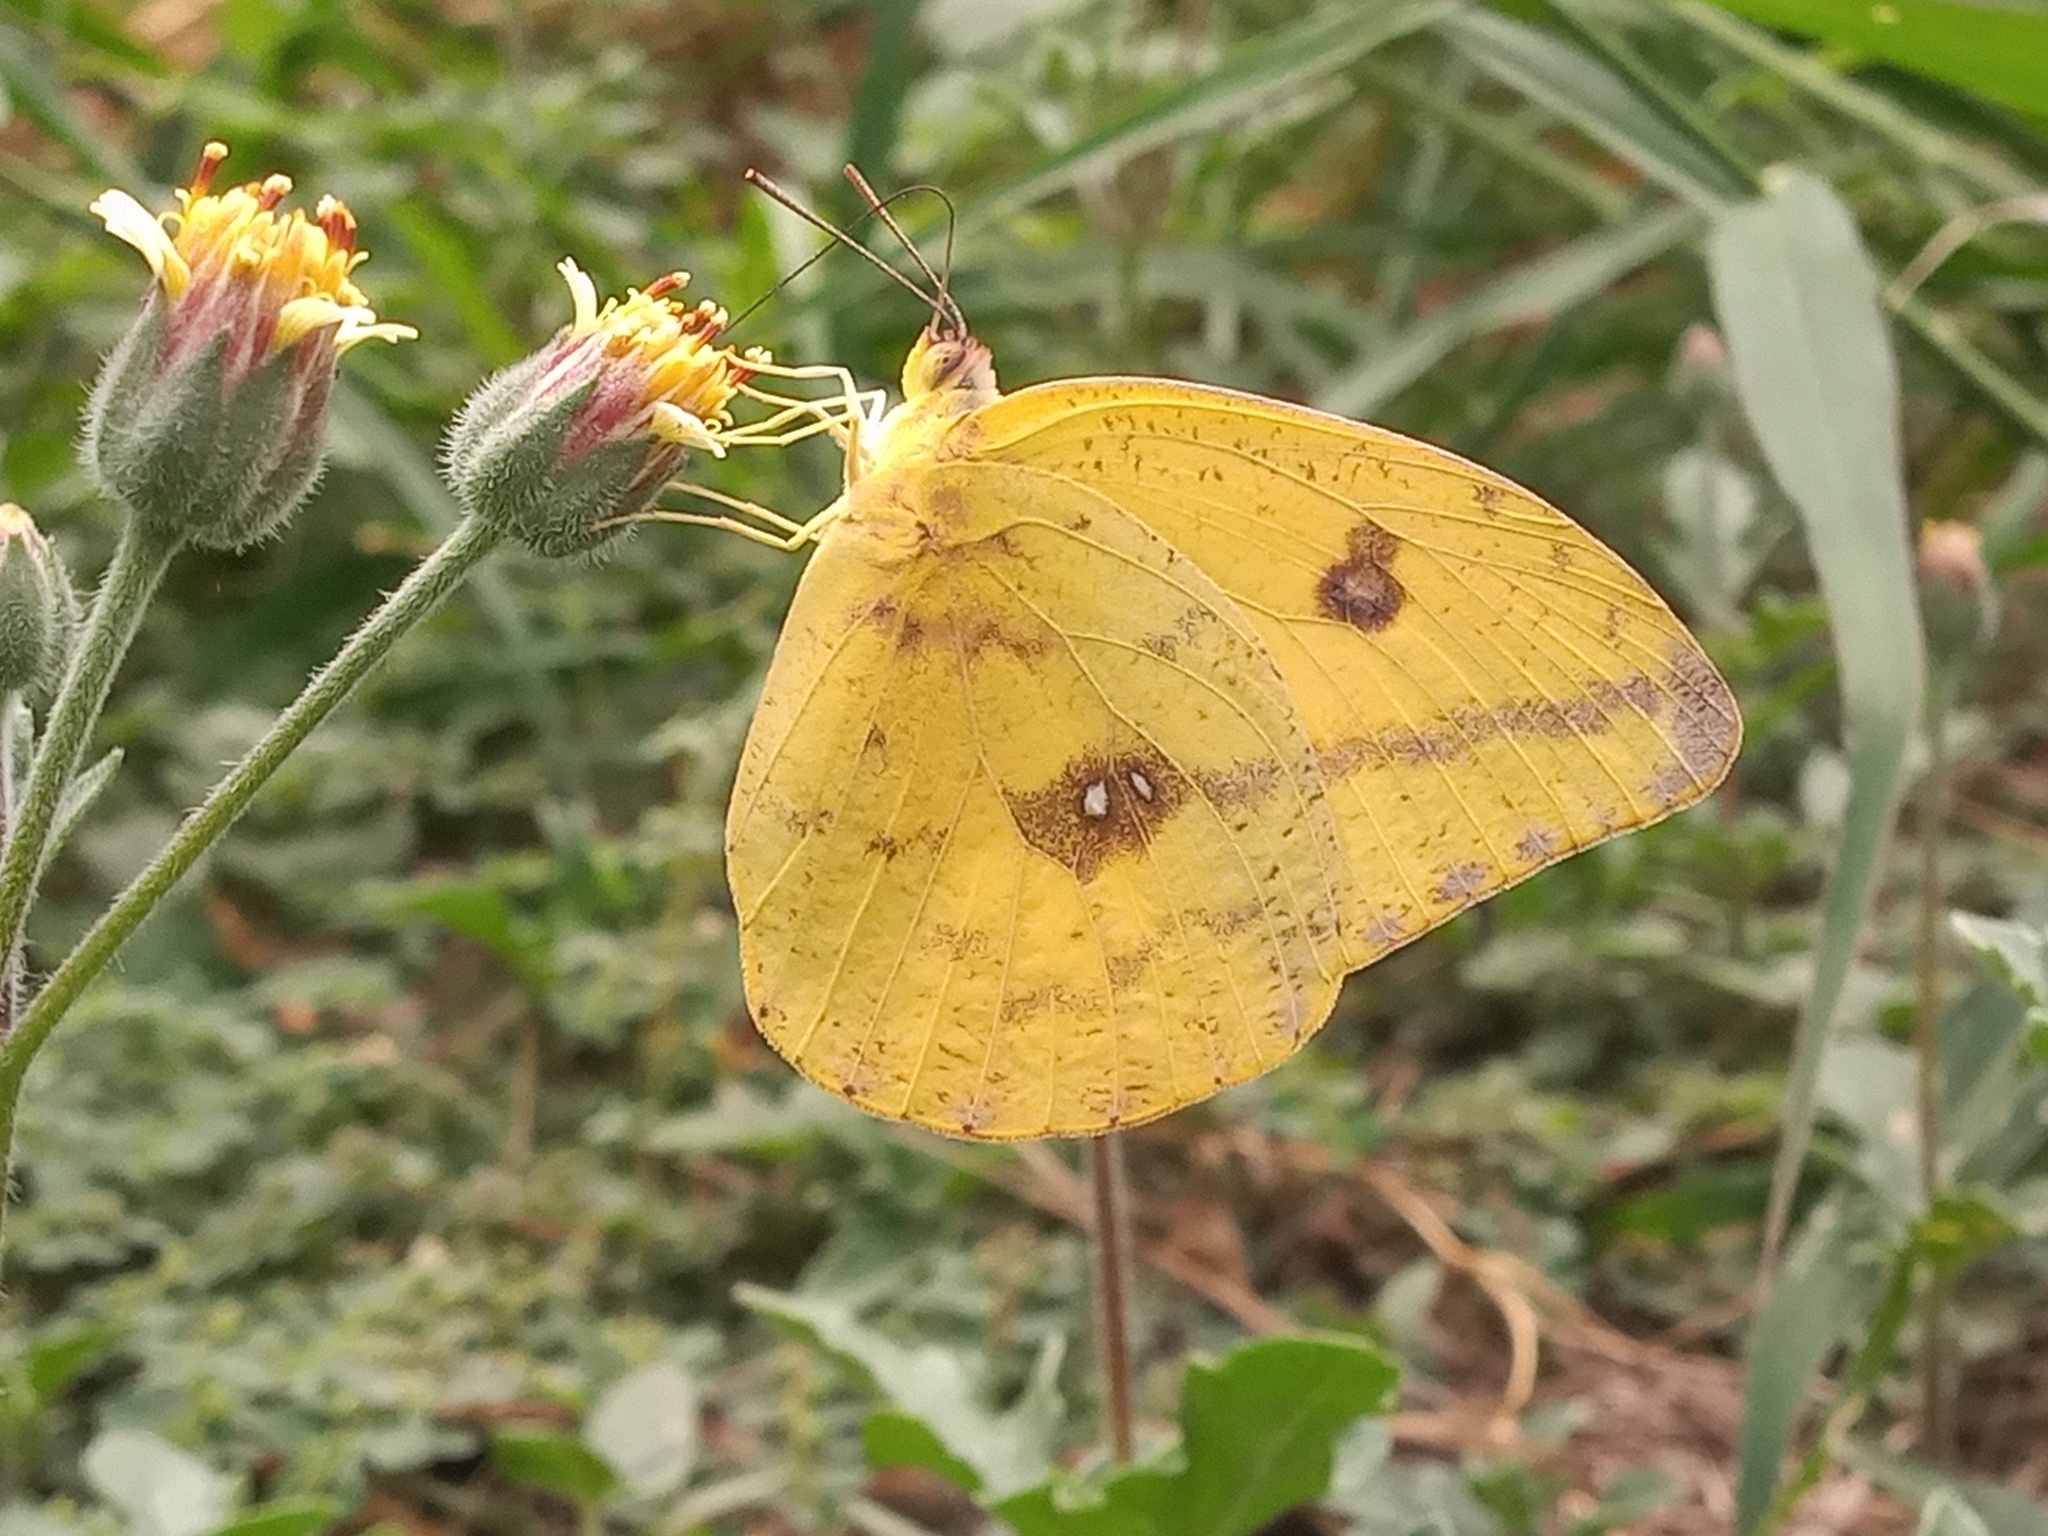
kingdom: Animalia
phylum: Arthropoda
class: Insecta
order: Lepidoptera
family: Pieridae
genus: Phoebis
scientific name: Phoebis agarithe
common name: Large orange sulphur
